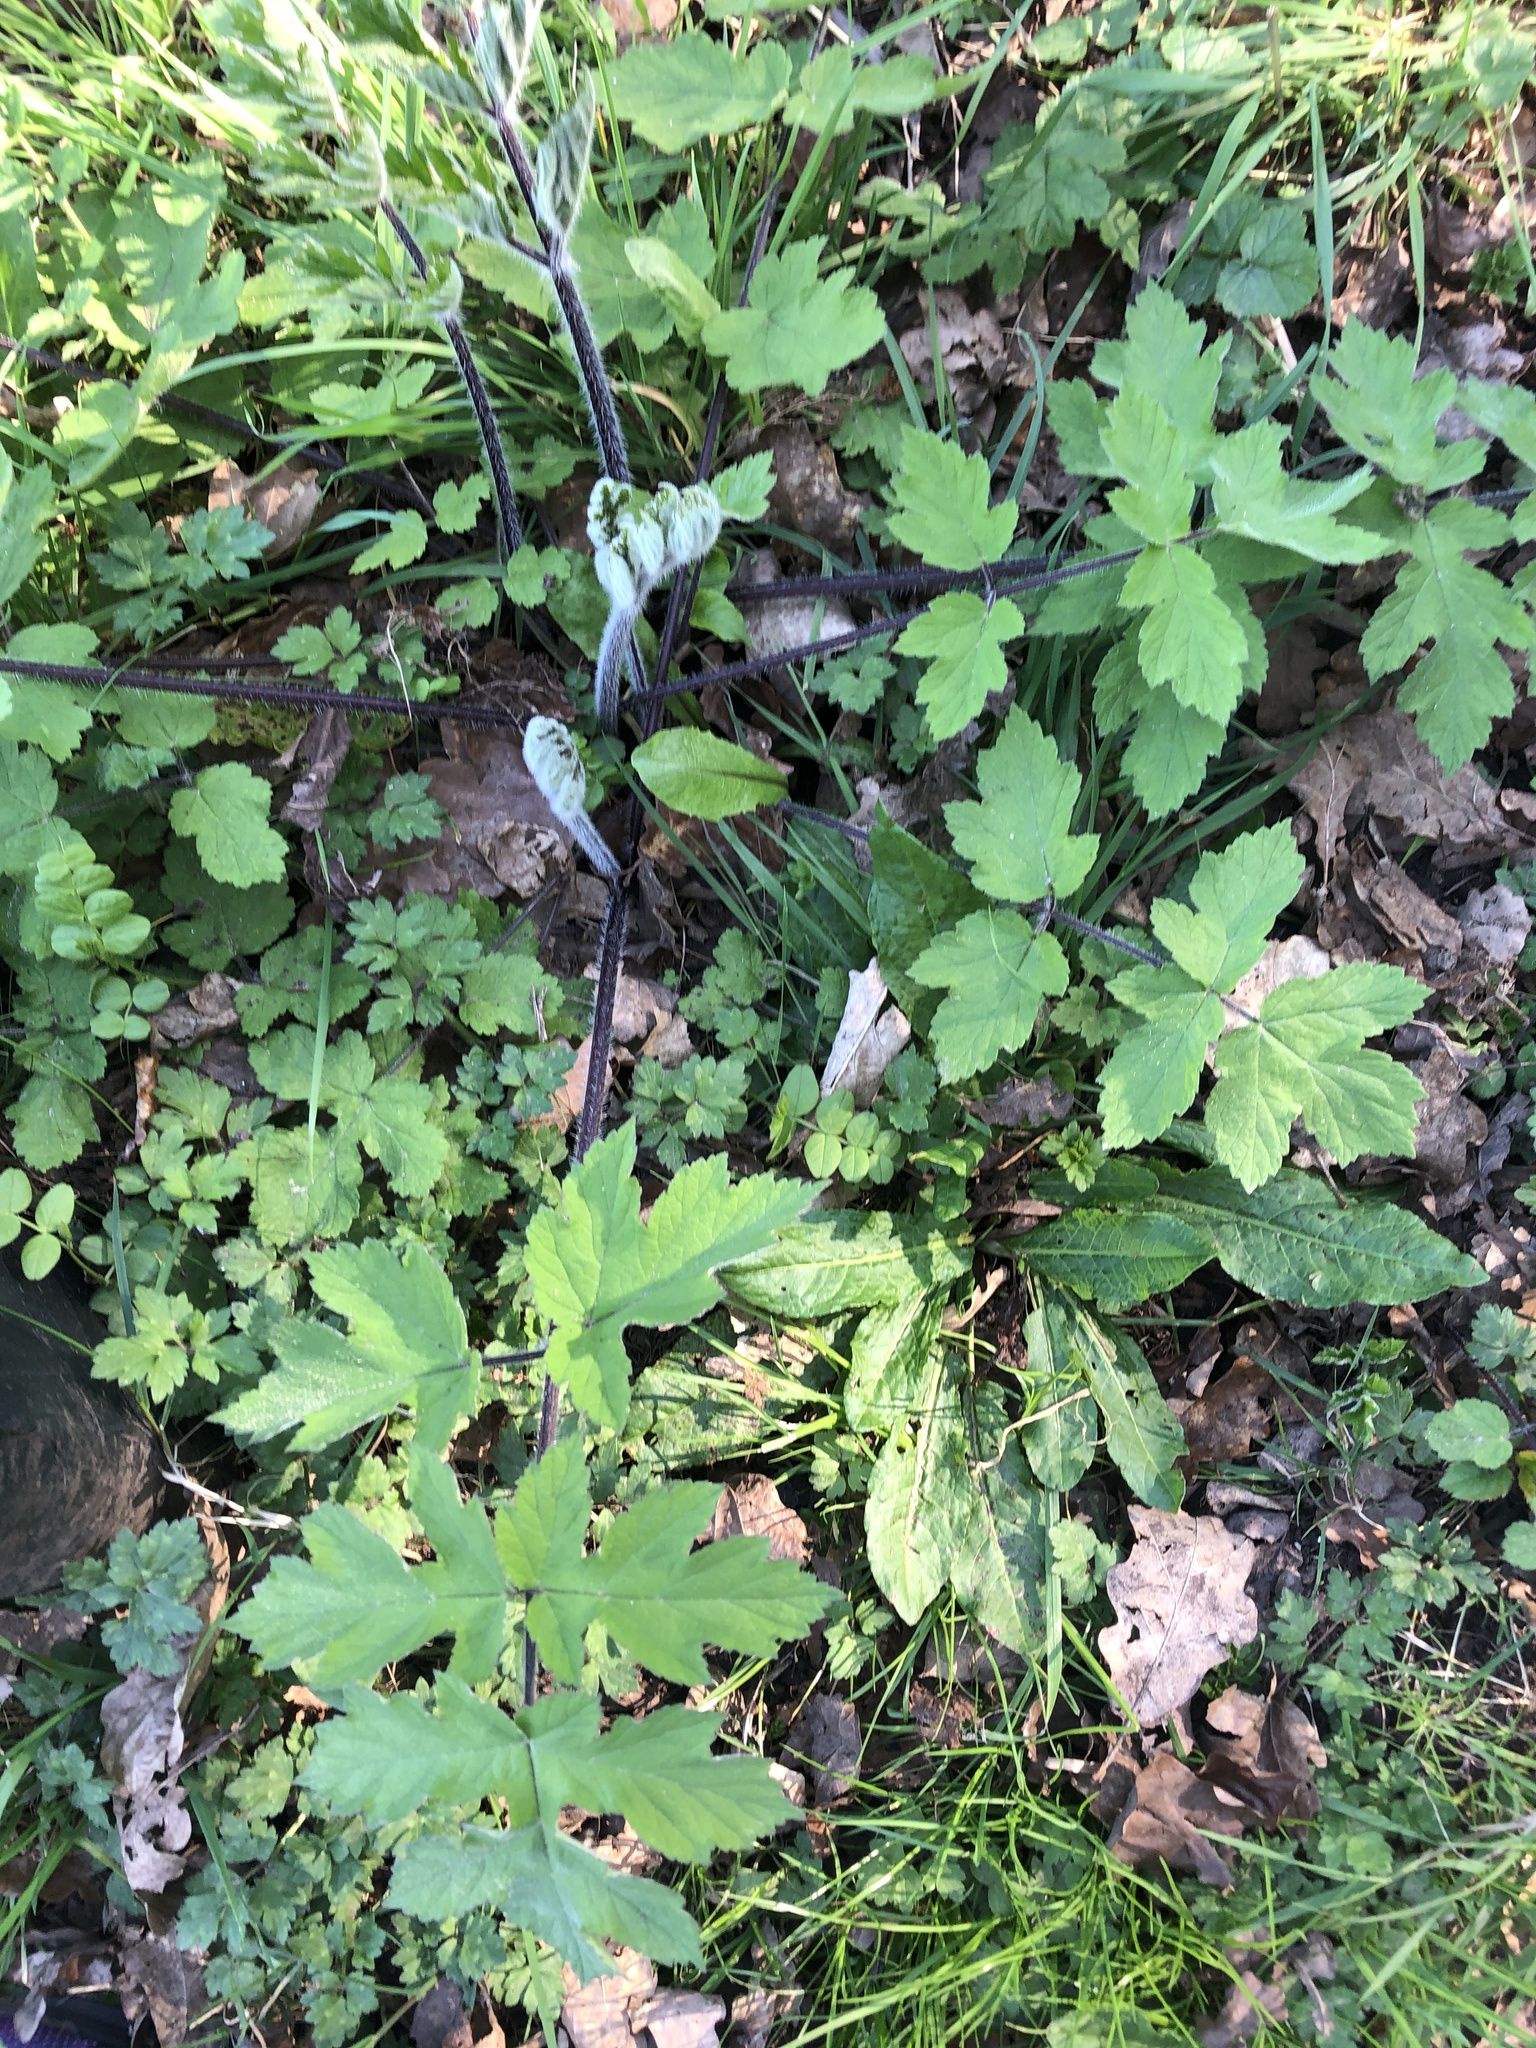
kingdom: Plantae
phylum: Tracheophyta
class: Magnoliopsida
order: Apiales
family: Apiaceae
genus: Heracleum
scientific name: Heracleum sphondylium
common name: Hogweed
